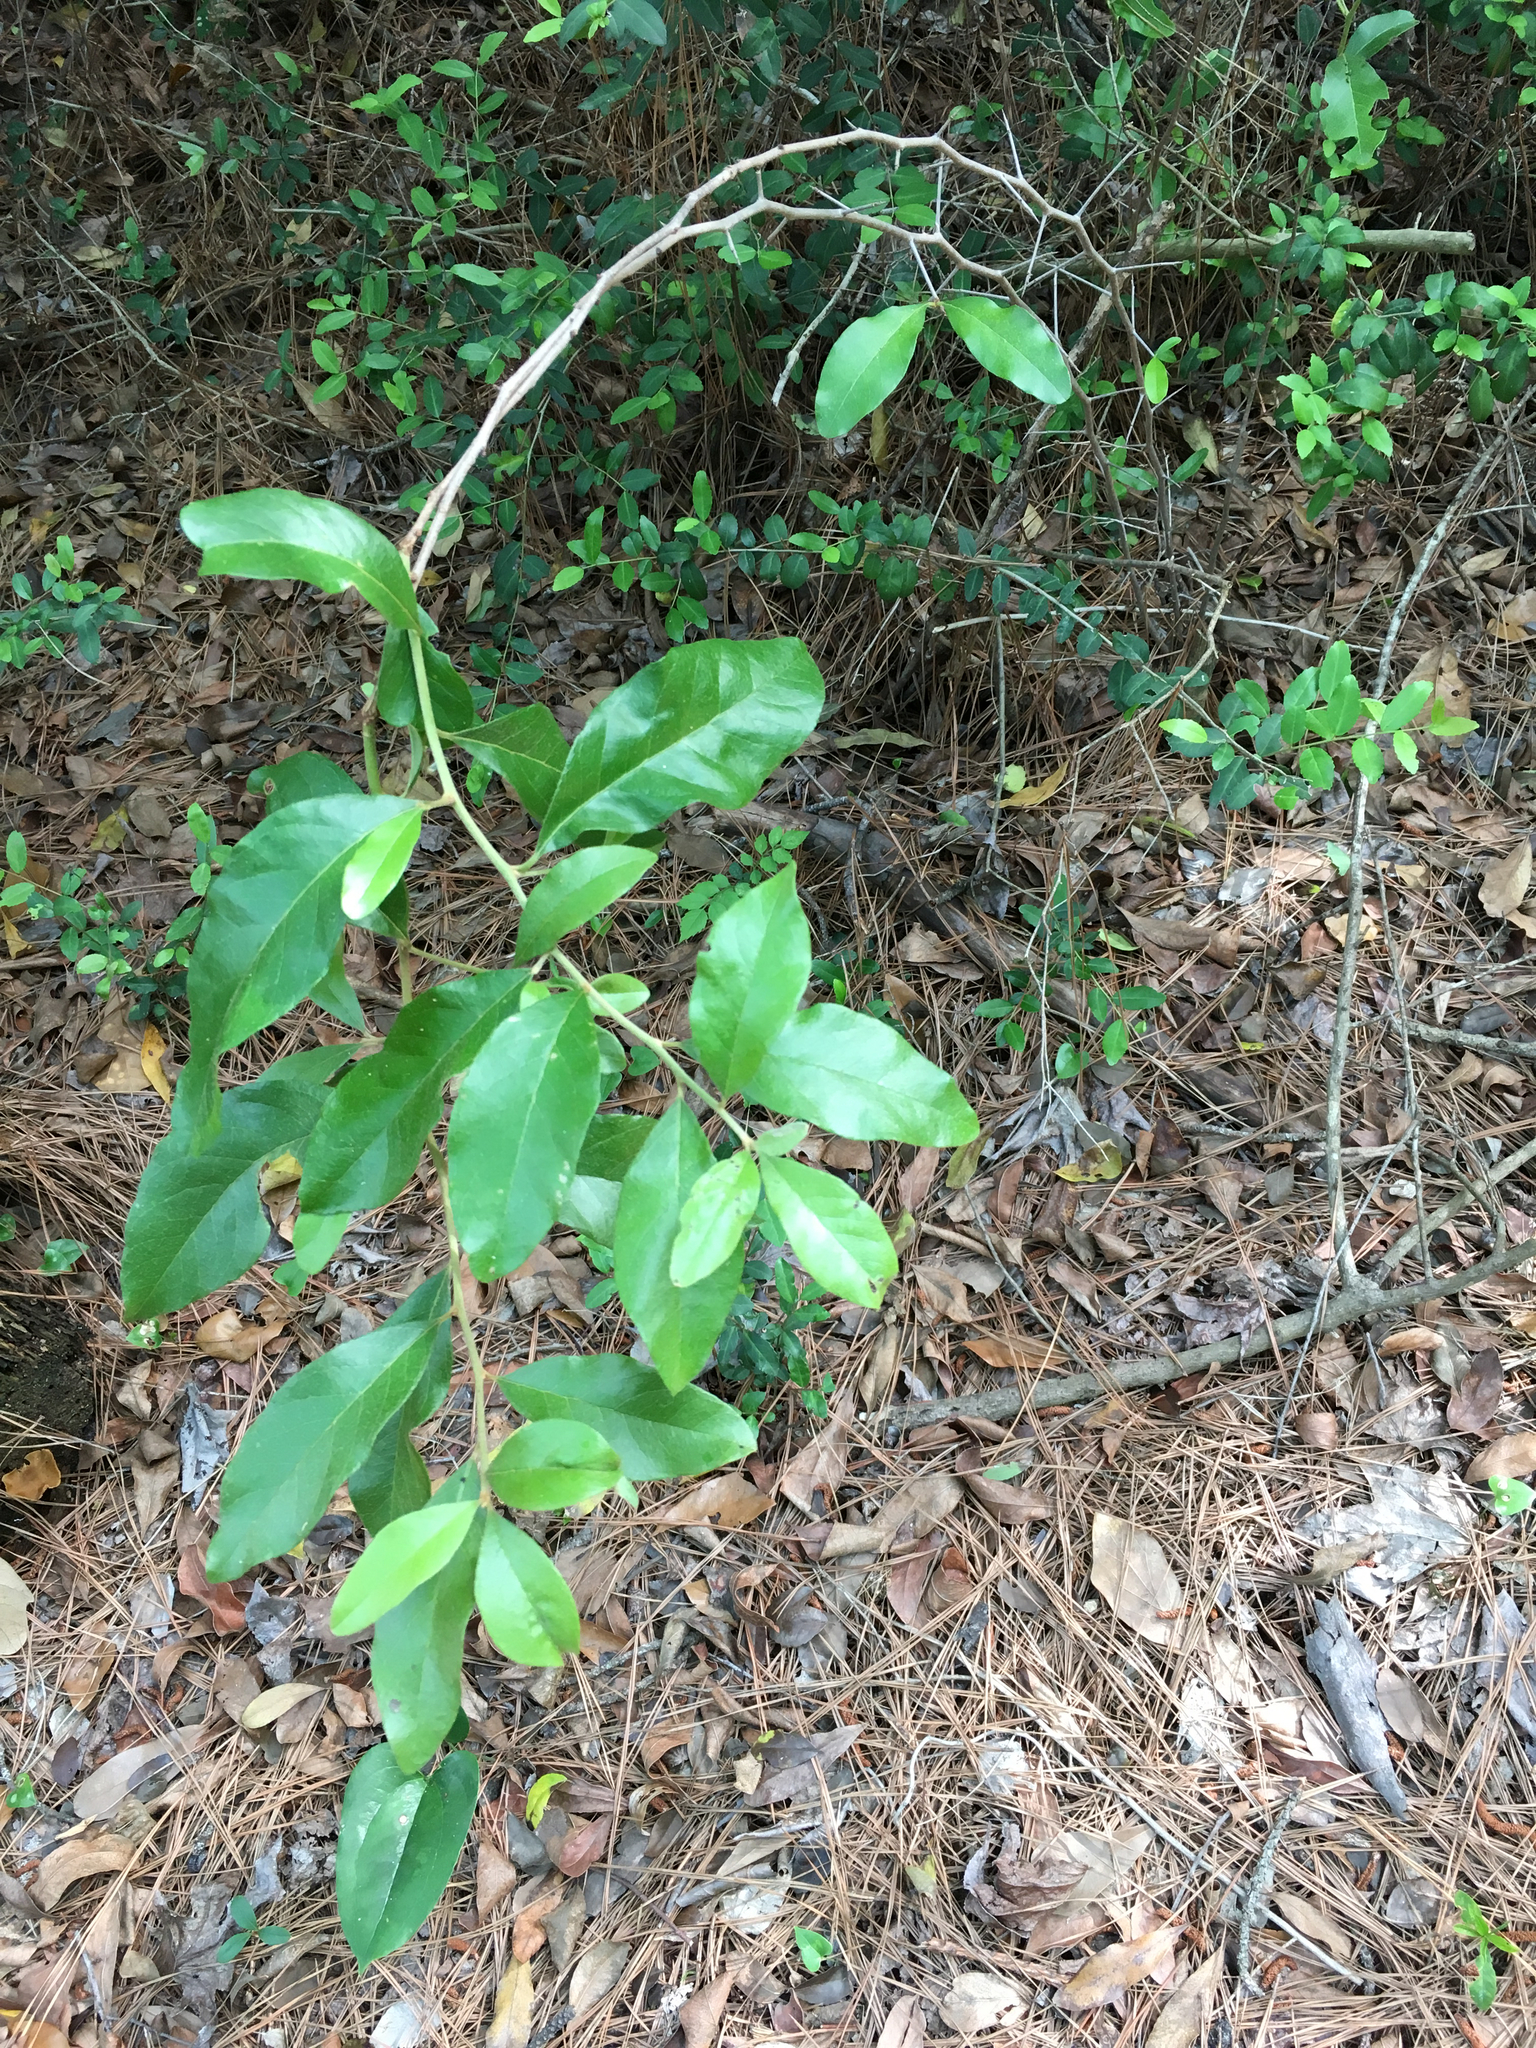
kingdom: Plantae
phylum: Tracheophyta
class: Magnoliopsida
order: Ericales
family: Sapotaceae
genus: Sideroxylon
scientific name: Sideroxylon lanuginosum
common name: Chittamwood
